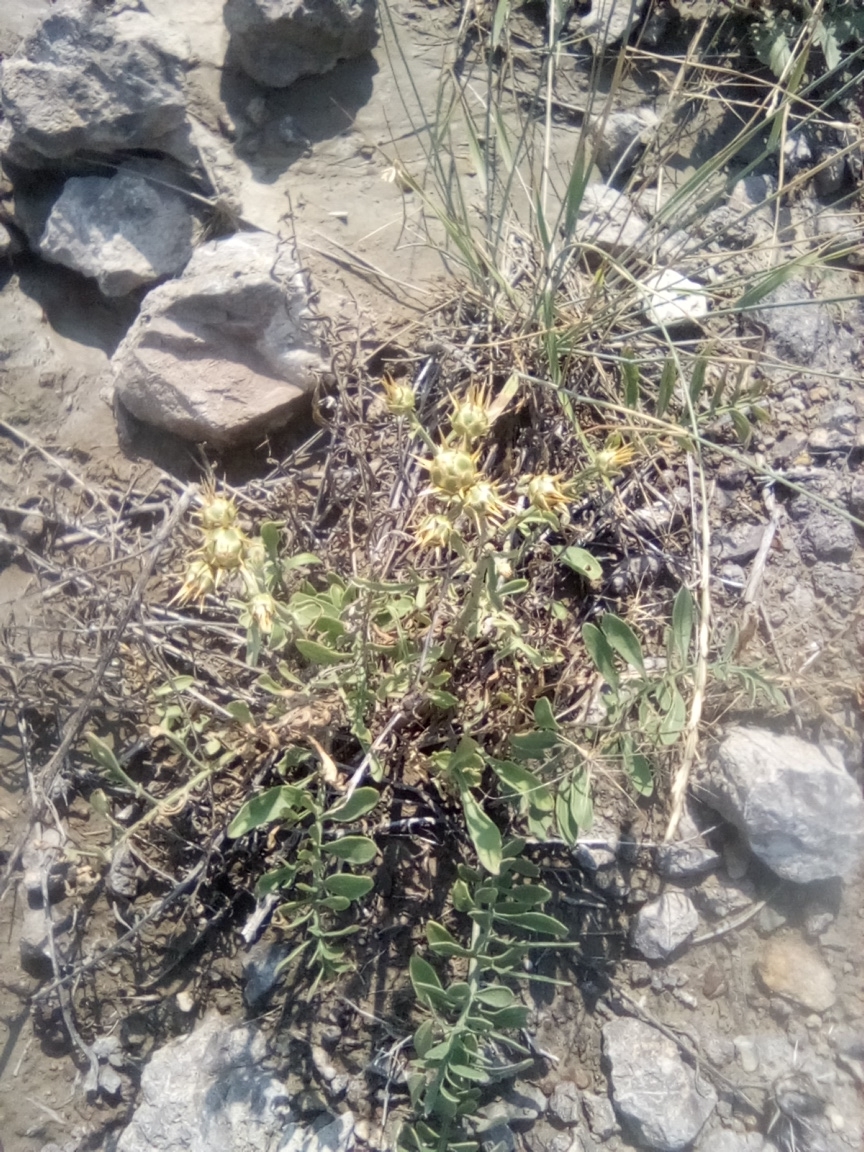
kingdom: Plantae
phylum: Tracheophyta
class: Magnoliopsida
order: Asterales
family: Asteraceae
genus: Centaurea
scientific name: Centaurea salonitana
